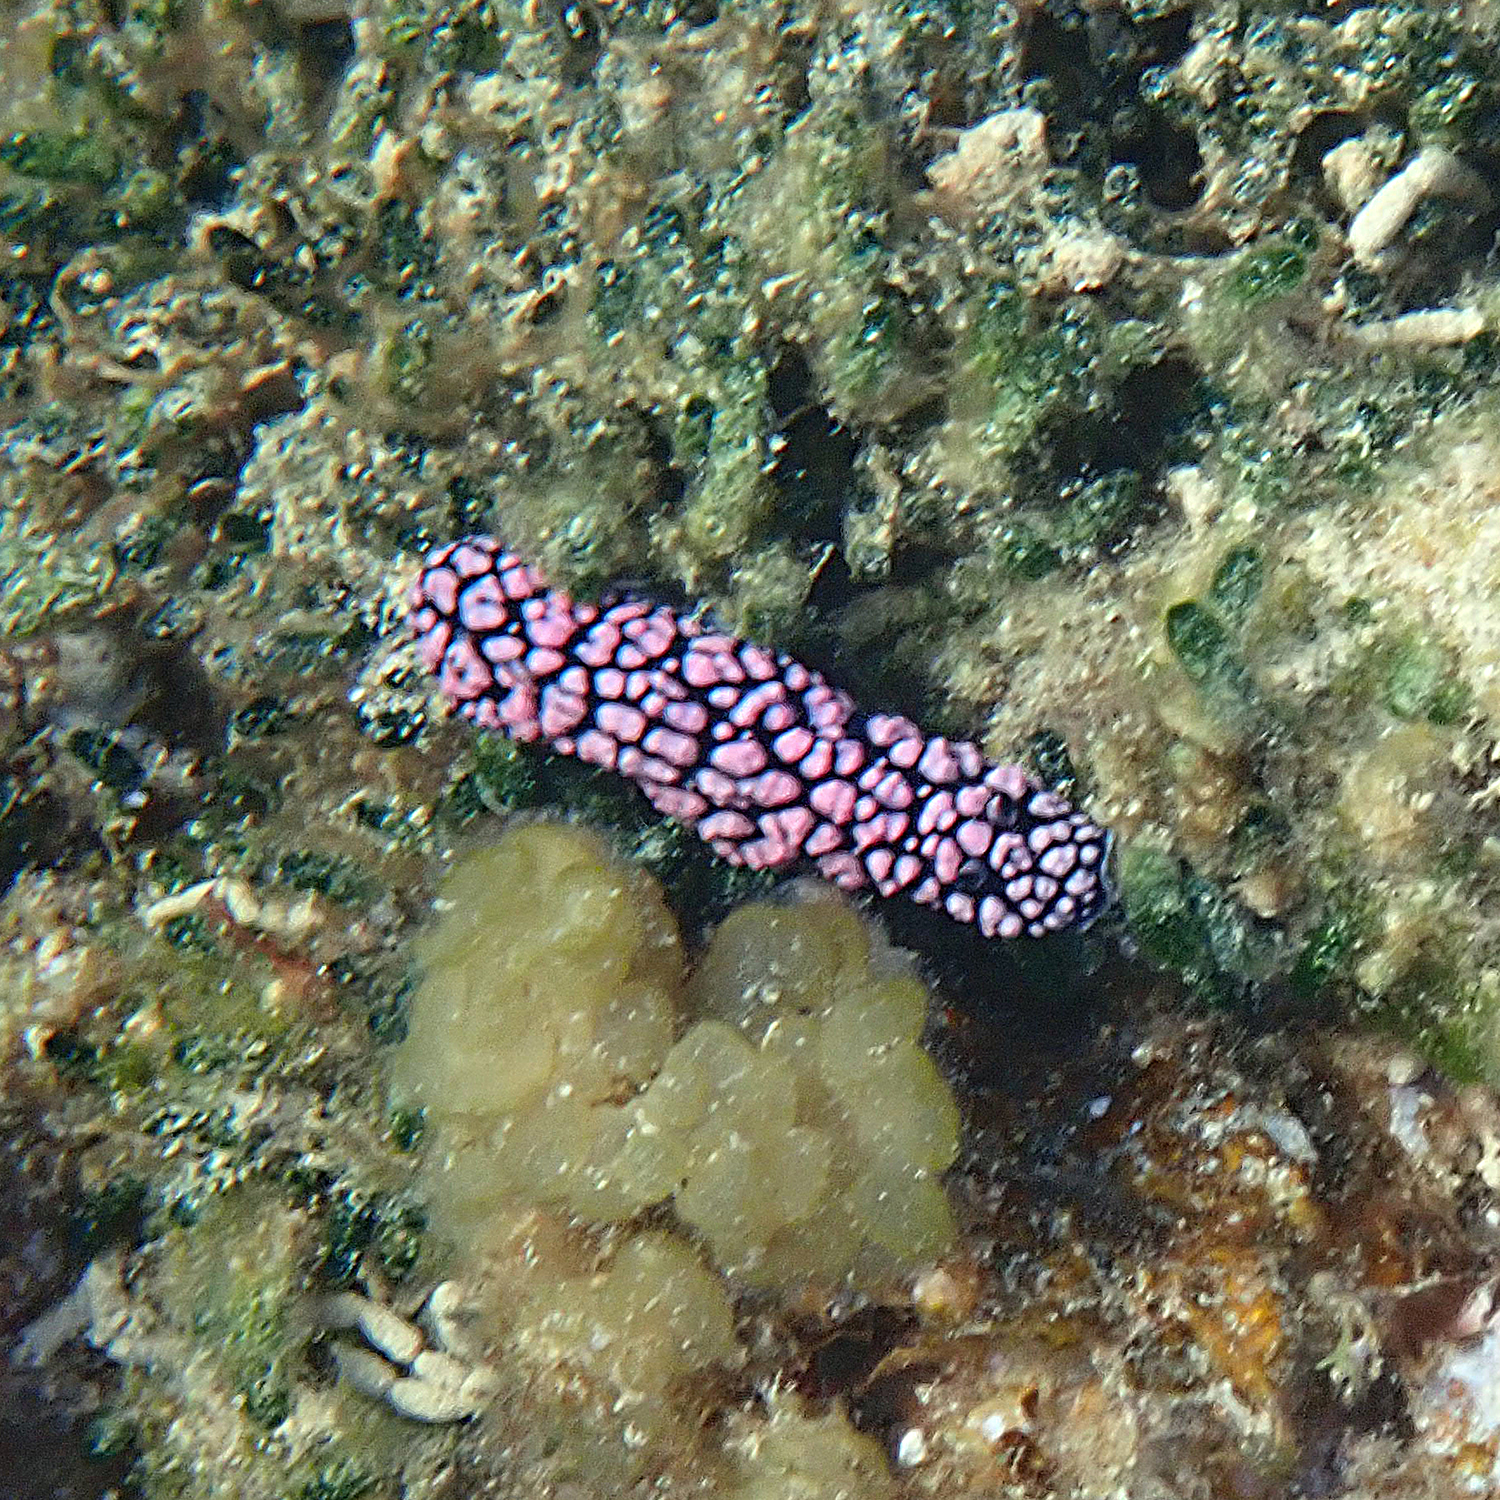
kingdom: Animalia
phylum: Mollusca
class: Gastropoda
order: Nudibranchia
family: Phyllidiidae
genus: Phyllidiella
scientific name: Phyllidiella pustulosa
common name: Pustular phyllidia
